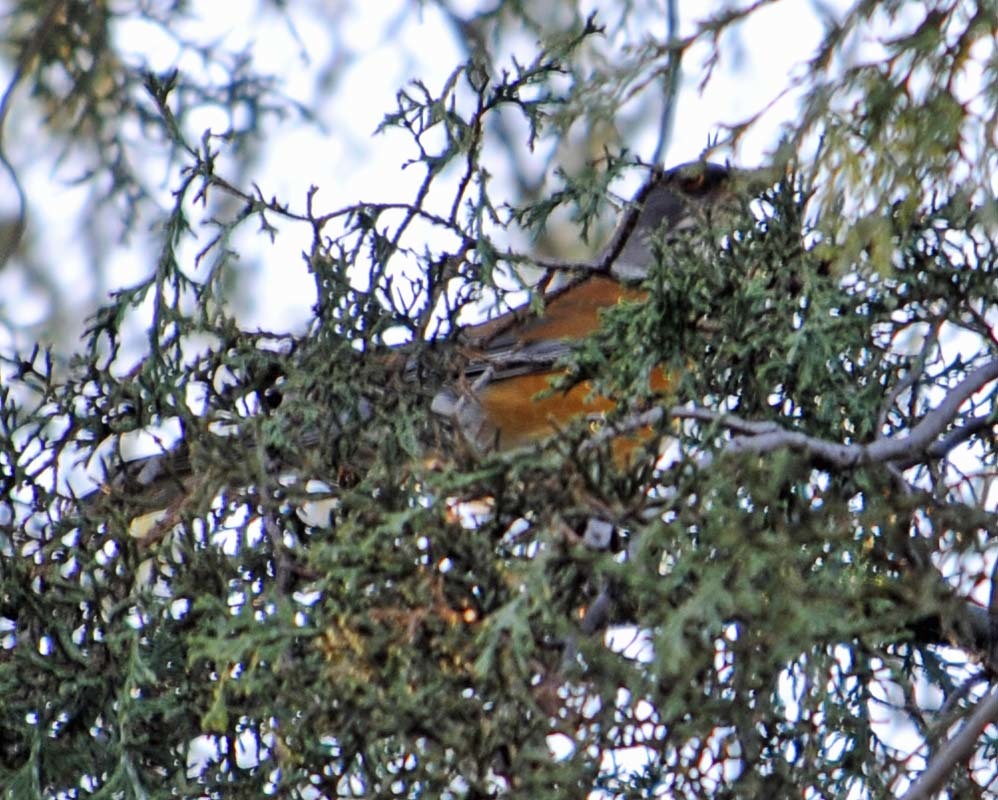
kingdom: Animalia
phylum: Chordata
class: Aves
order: Passeriformes
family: Turdidae
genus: Turdus
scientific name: Turdus rufopalliatus
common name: Rufous-backed robin
